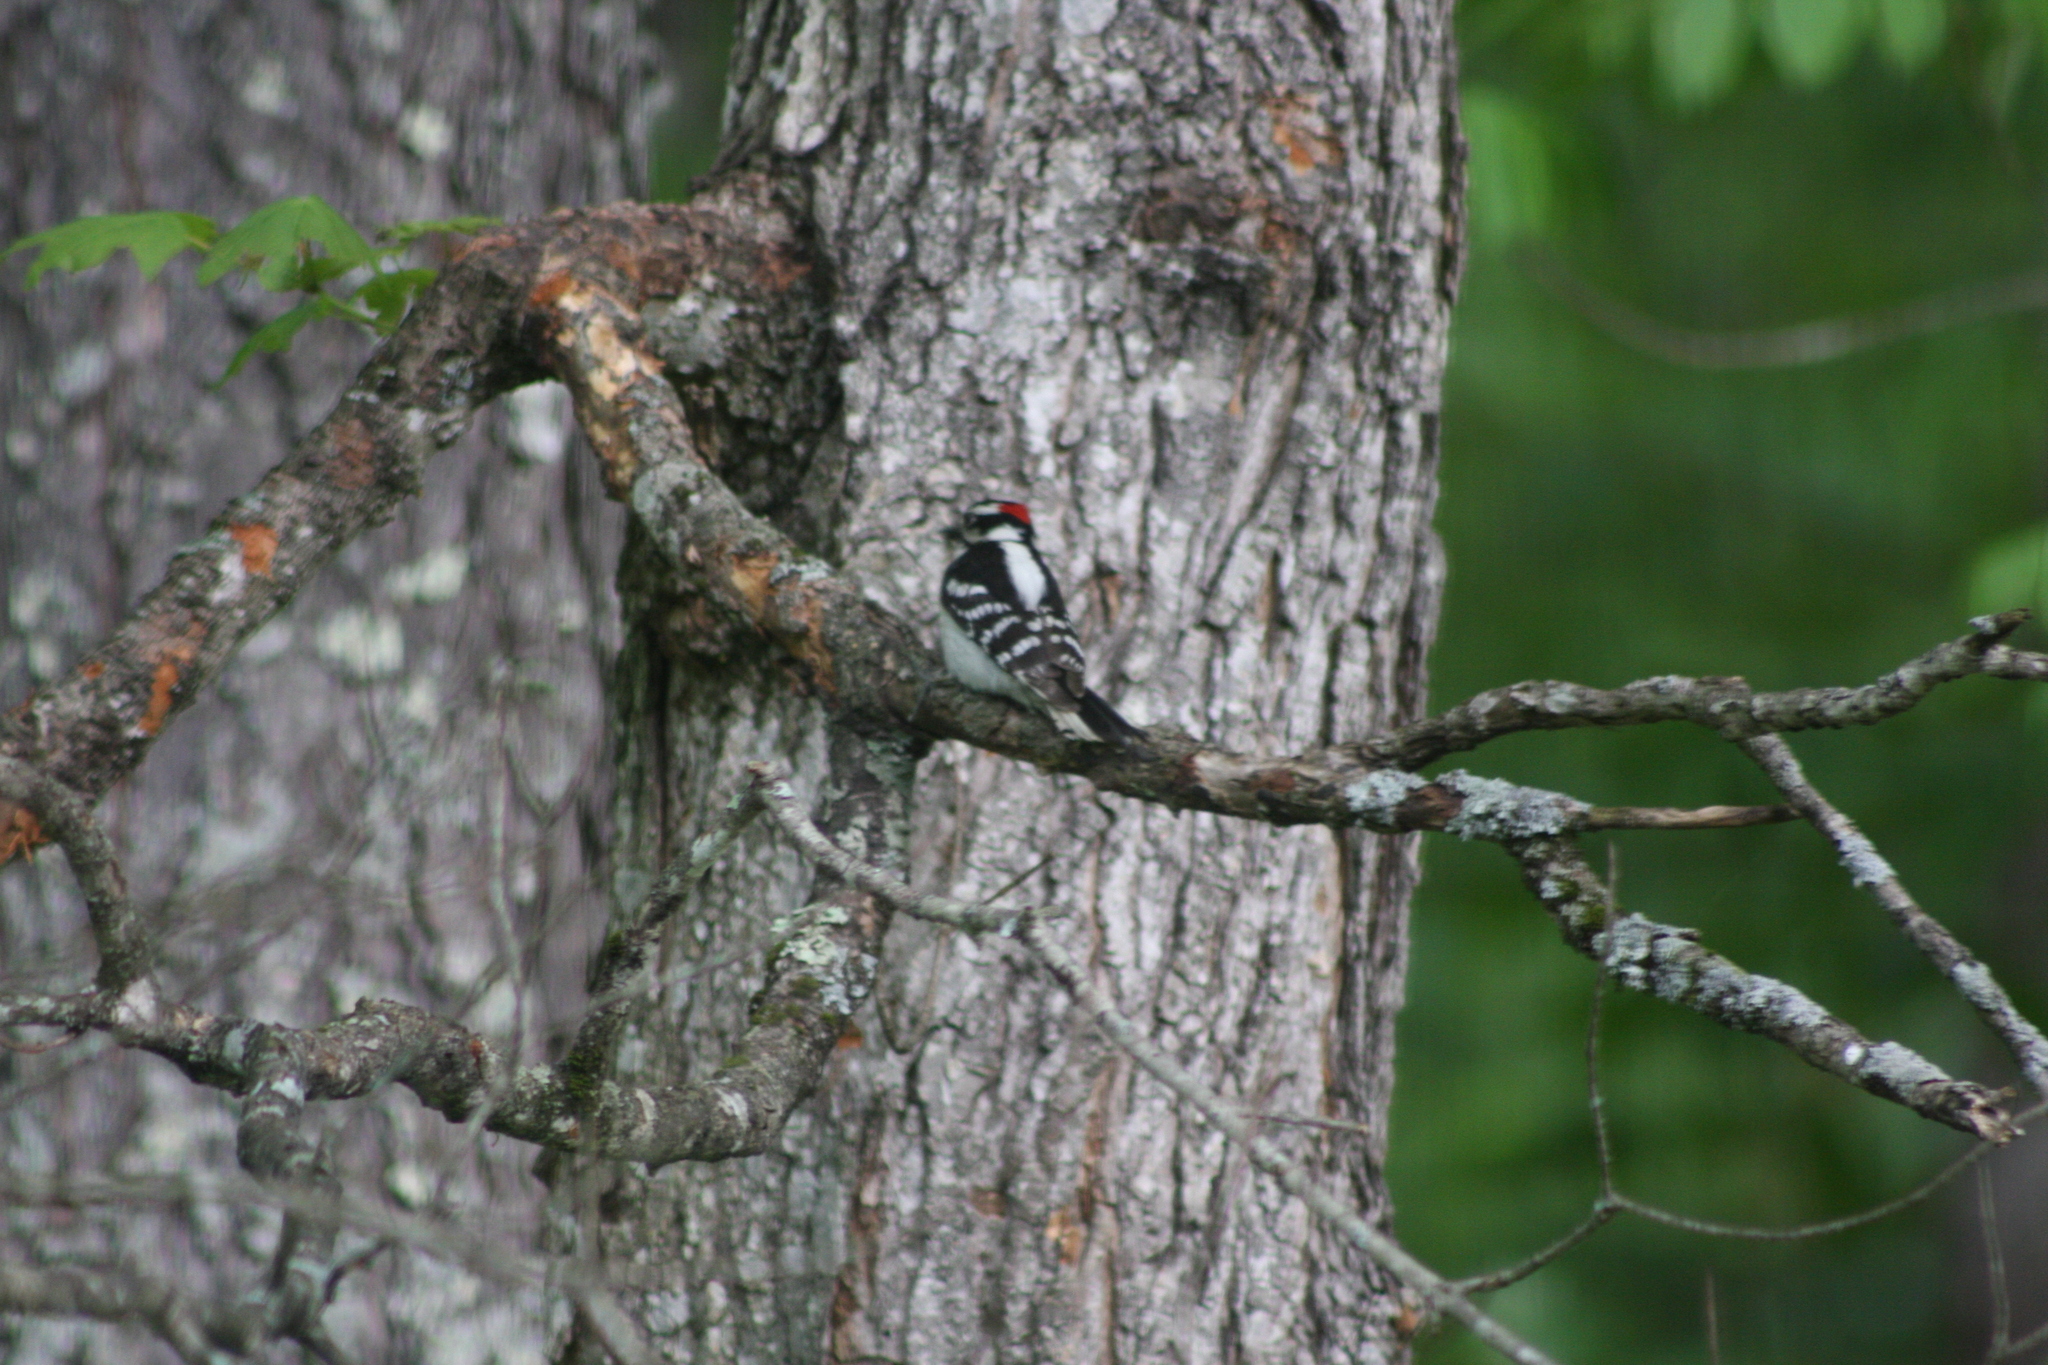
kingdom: Animalia
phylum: Chordata
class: Aves
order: Piciformes
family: Picidae
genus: Dryobates
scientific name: Dryobates pubescens
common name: Downy woodpecker
